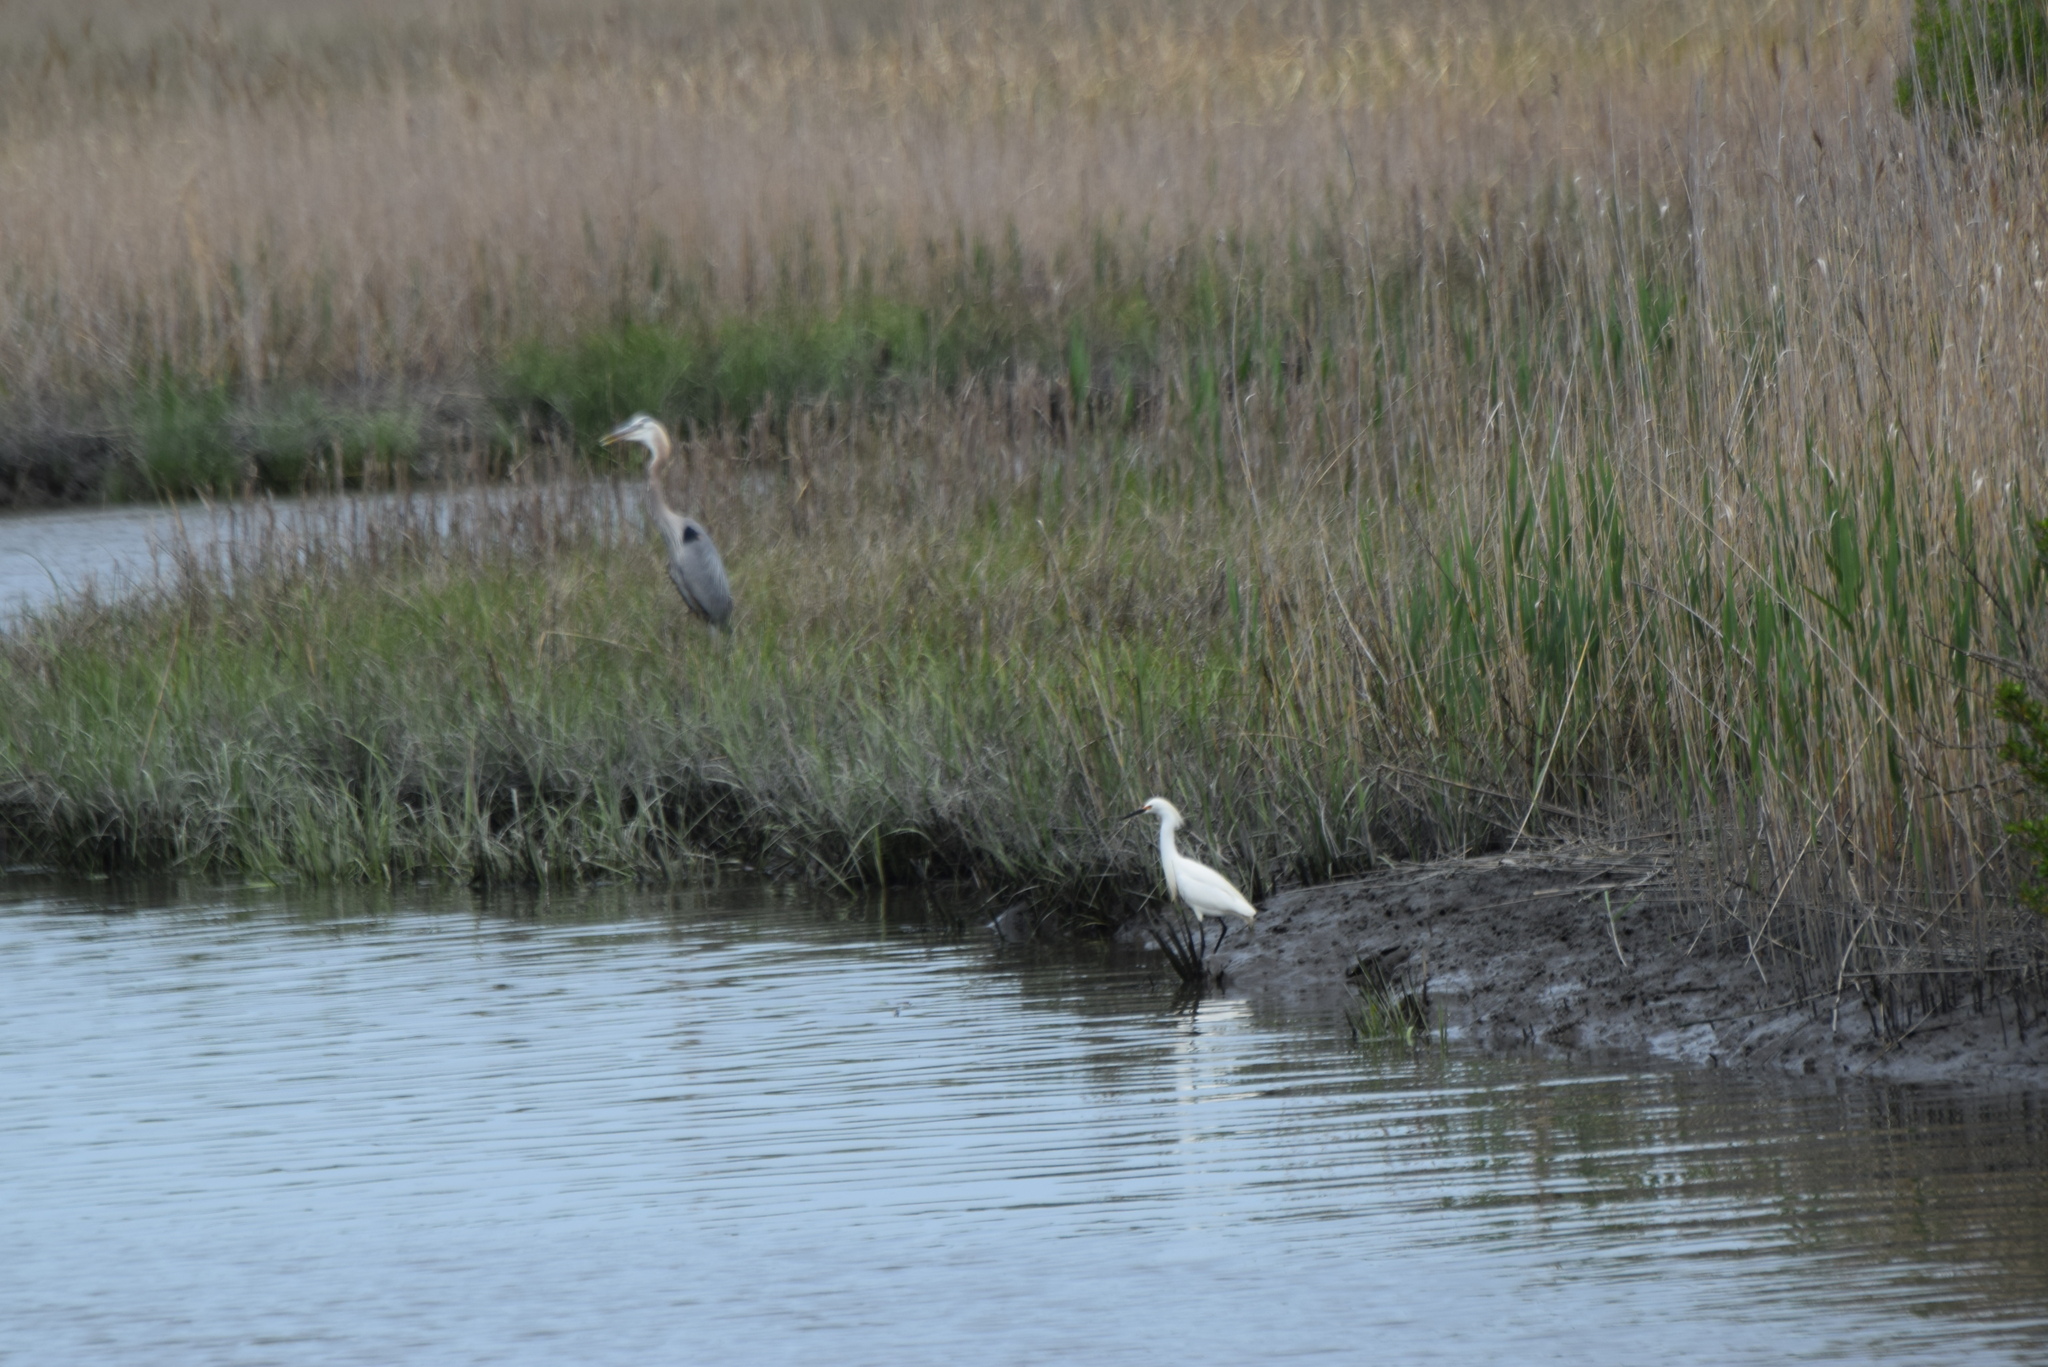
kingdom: Animalia
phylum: Chordata
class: Aves
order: Pelecaniformes
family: Ardeidae
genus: Egretta
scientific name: Egretta thula
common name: Snowy egret
